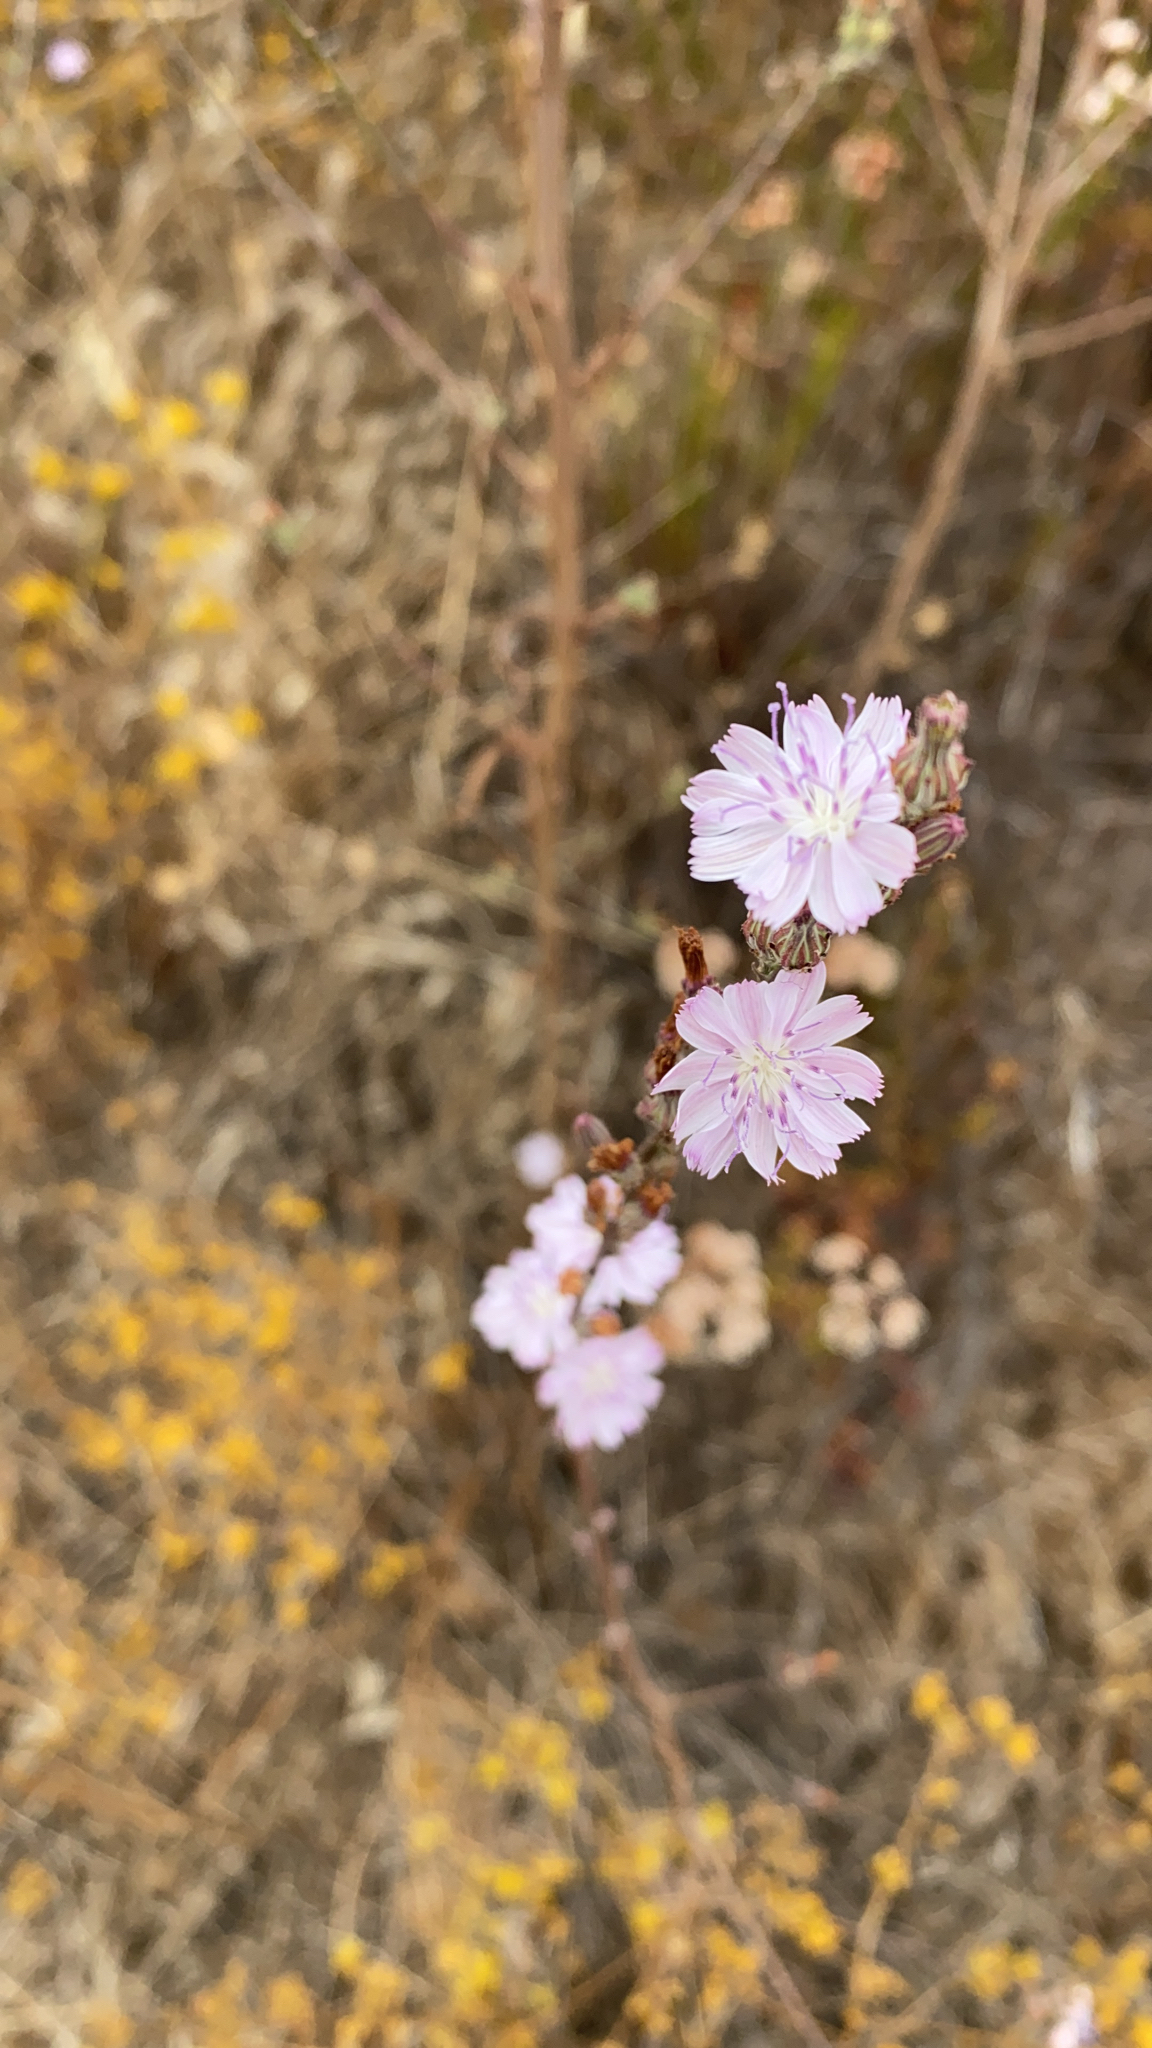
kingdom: Plantae
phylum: Tracheophyta
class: Magnoliopsida
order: Asterales
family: Asteraceae
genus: Stephanomeria
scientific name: Stephanomeria diegensis
